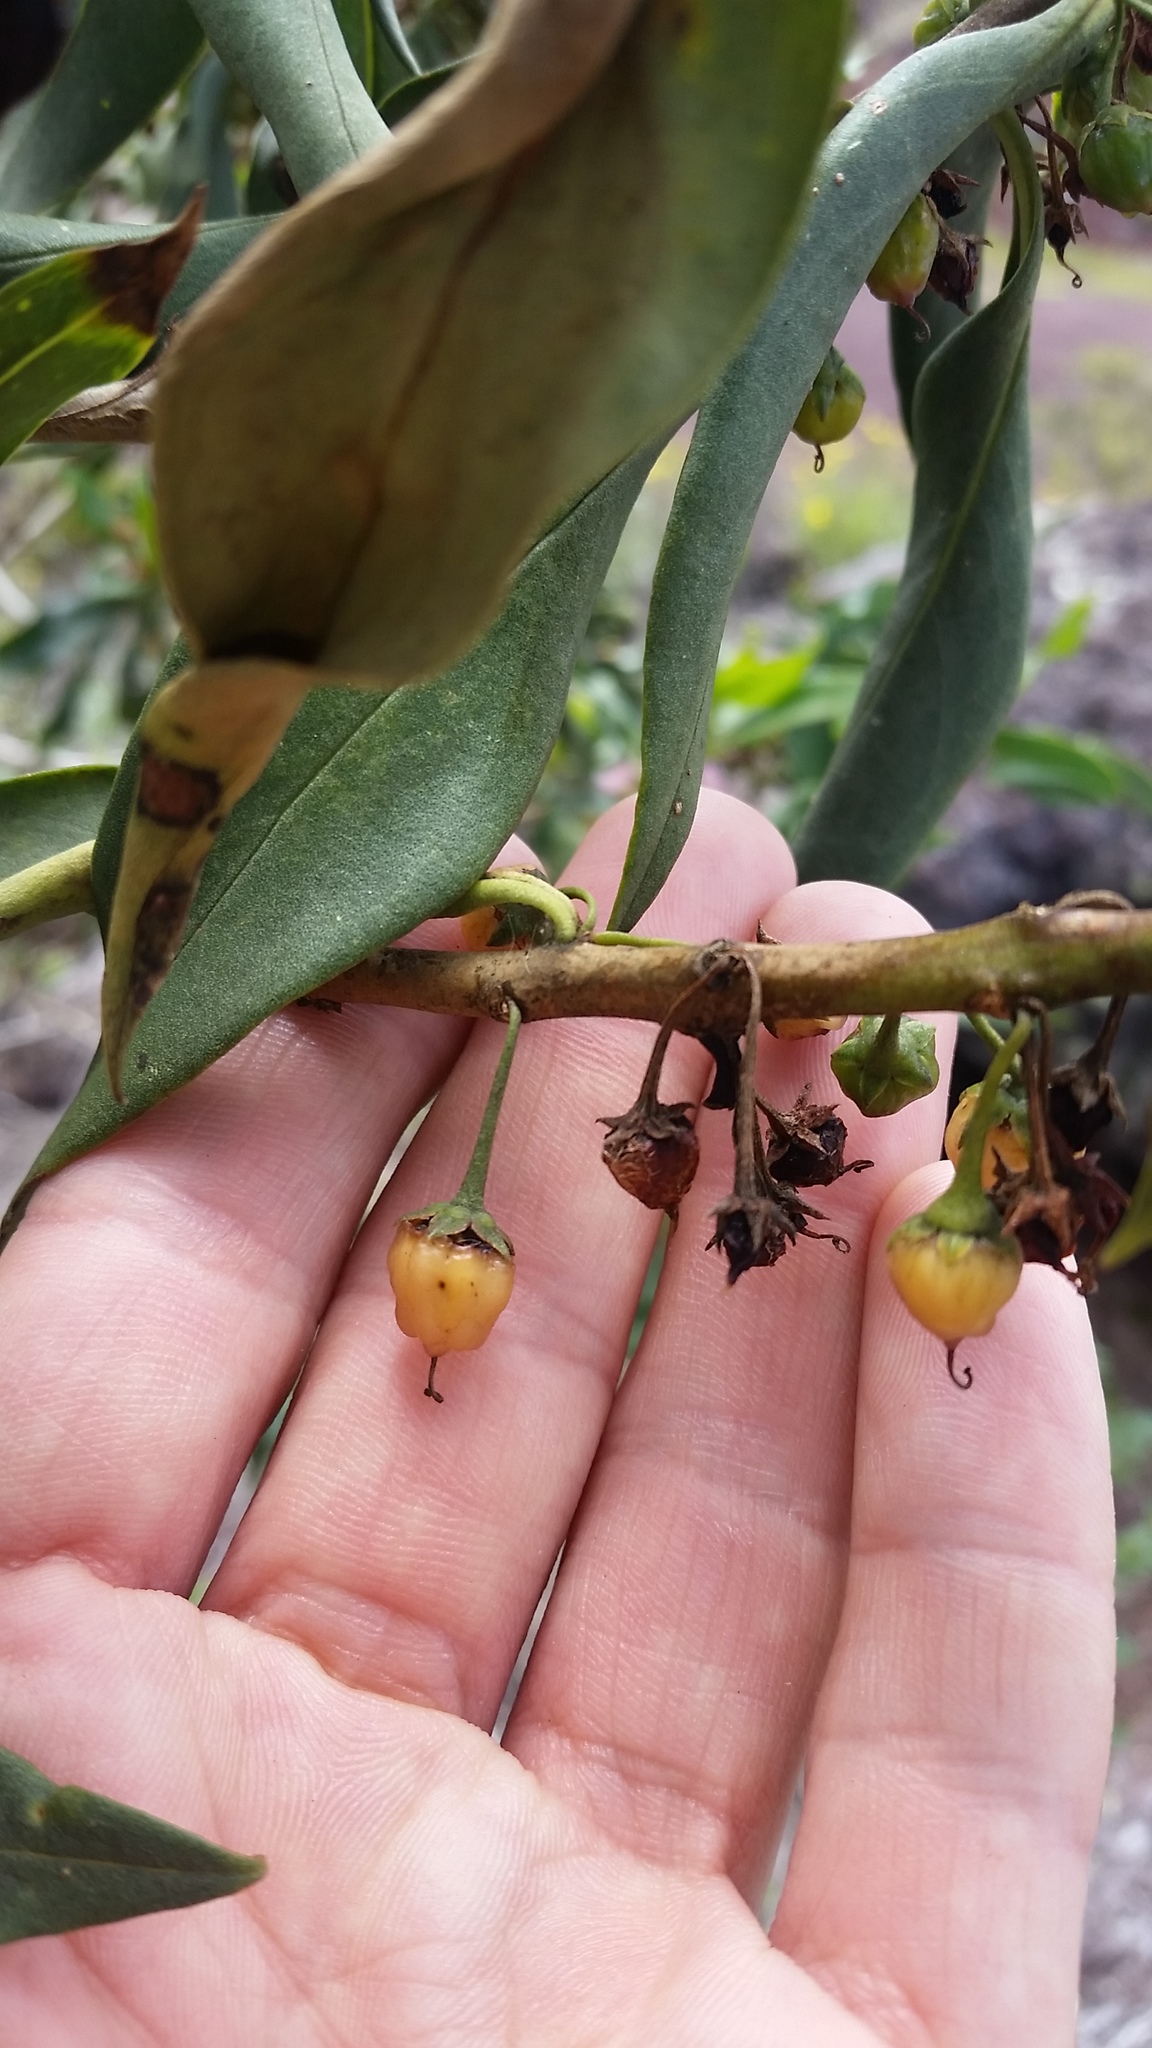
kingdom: Plantae
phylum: Tracheophyta
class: Magnoliopsida
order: Lamiales
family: Scrophulariaceae
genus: Myoporum
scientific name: Myoporum sandwicense
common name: Bastard-sandalwood
